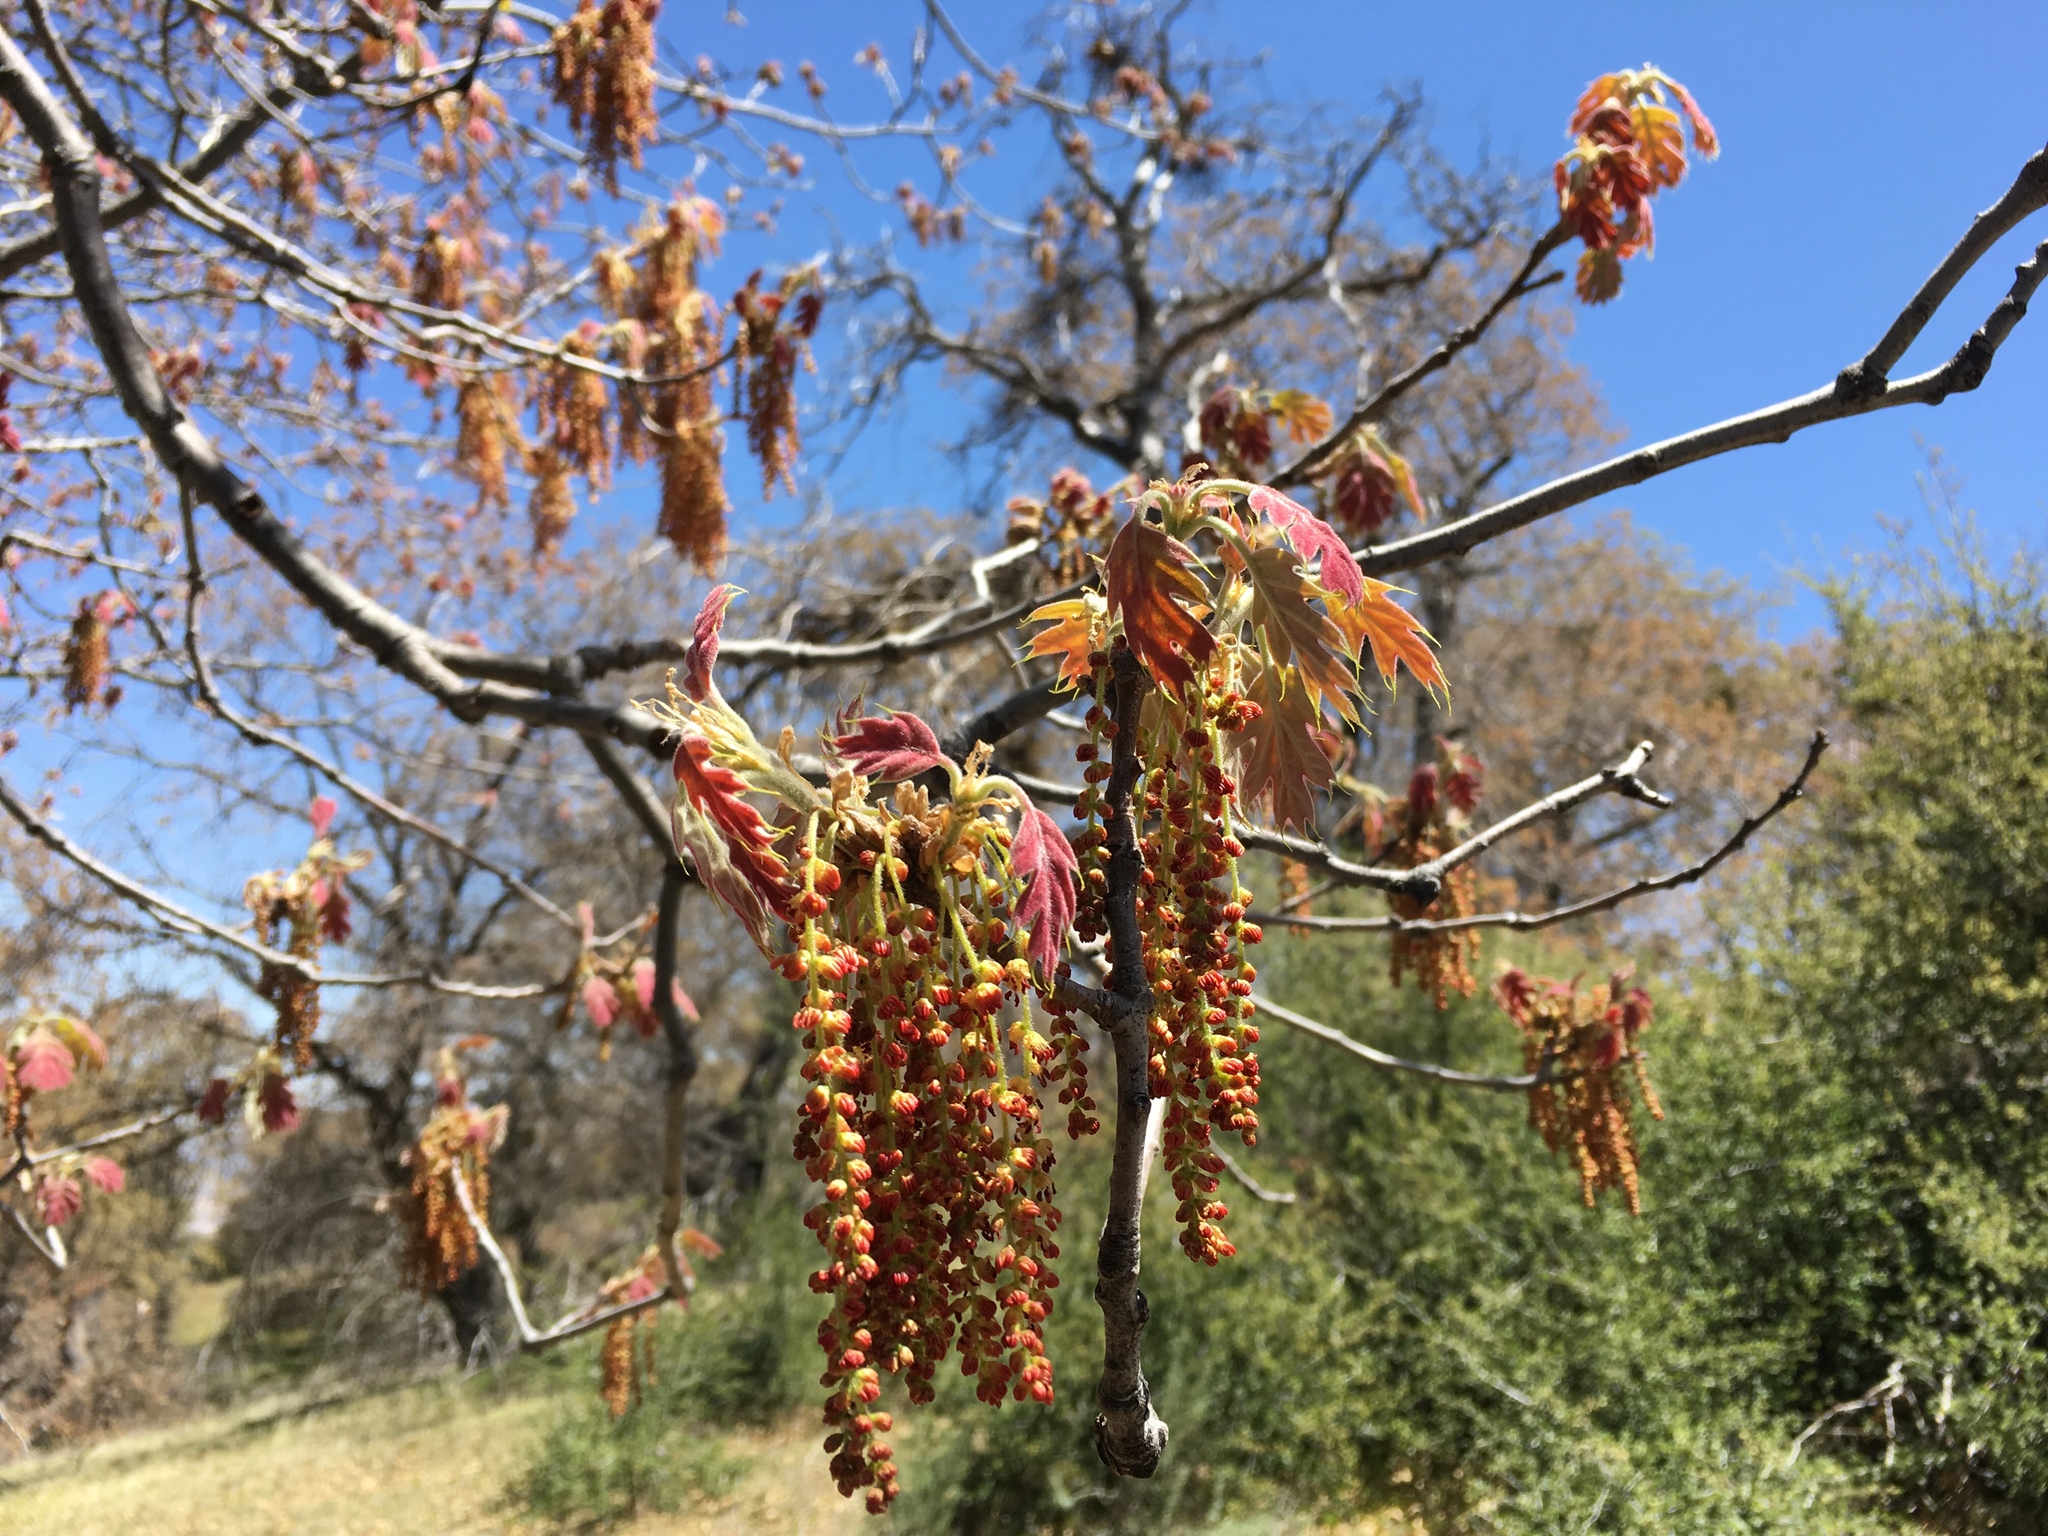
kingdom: Plantae
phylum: Tracheophyta
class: Magnoliopsida
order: Fagales
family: Fagaceae
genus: Quercus
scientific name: Quercus kelloggii
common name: California black oak
